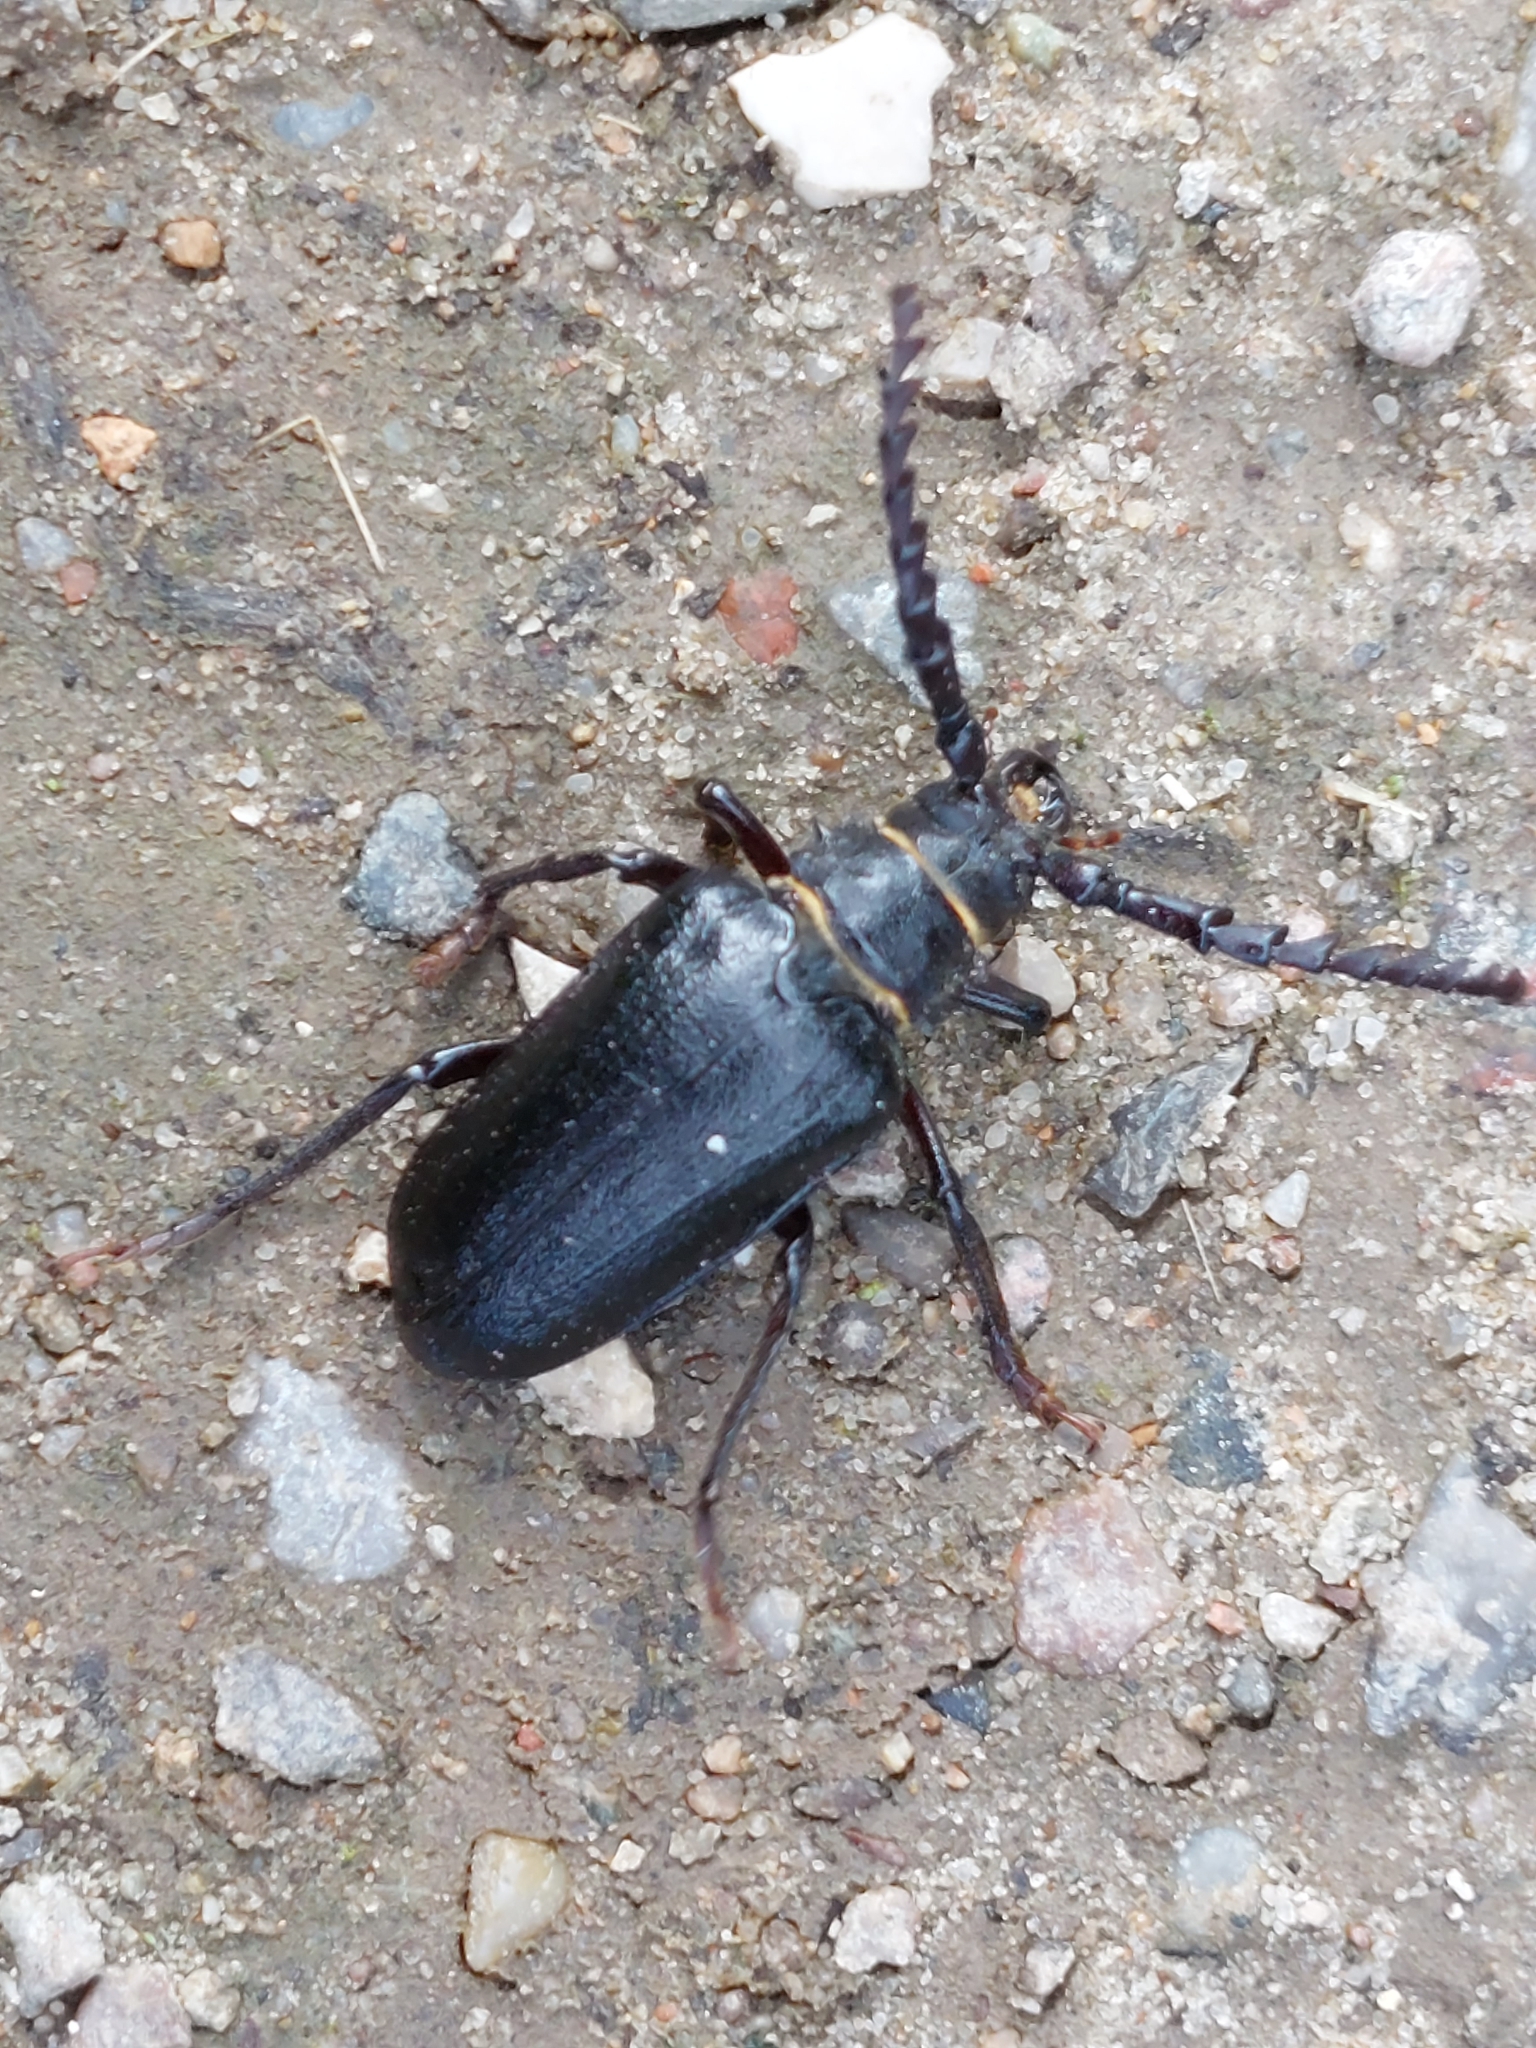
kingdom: Animalia
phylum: Arthropoda
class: Insecta
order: Coleoptera
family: Cerambycidae
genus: Prionus
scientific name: Prionus coriarius
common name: Tanner beetle
